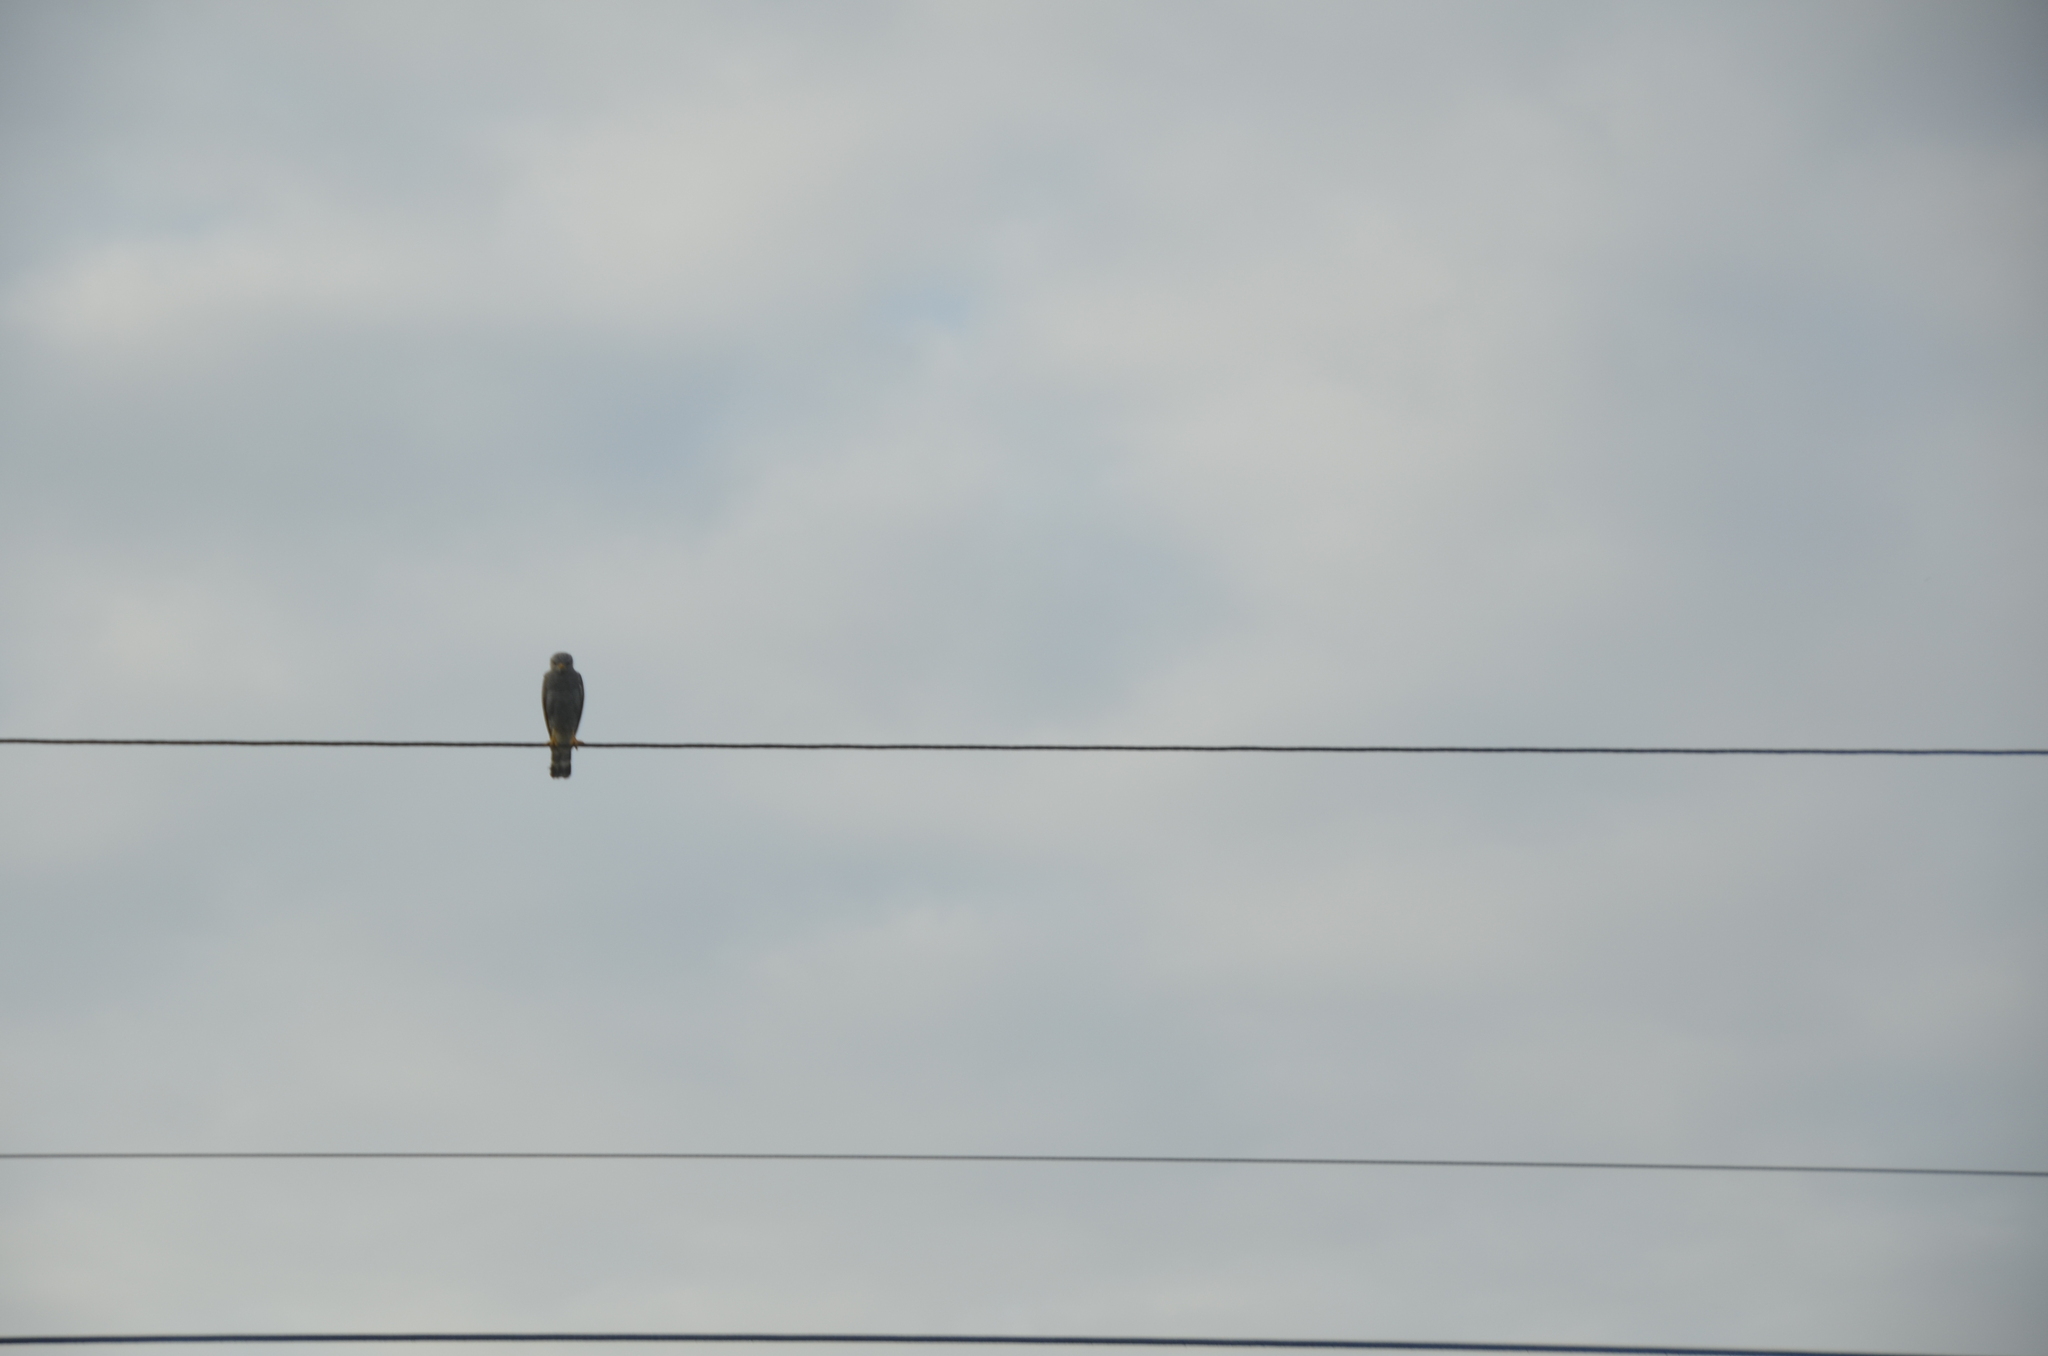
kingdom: Animalia
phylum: Chordata
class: Aves
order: Accipitriformes
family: Accipitridae
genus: Buteo
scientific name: Buteo nitidus
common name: Grey-lined hawk
